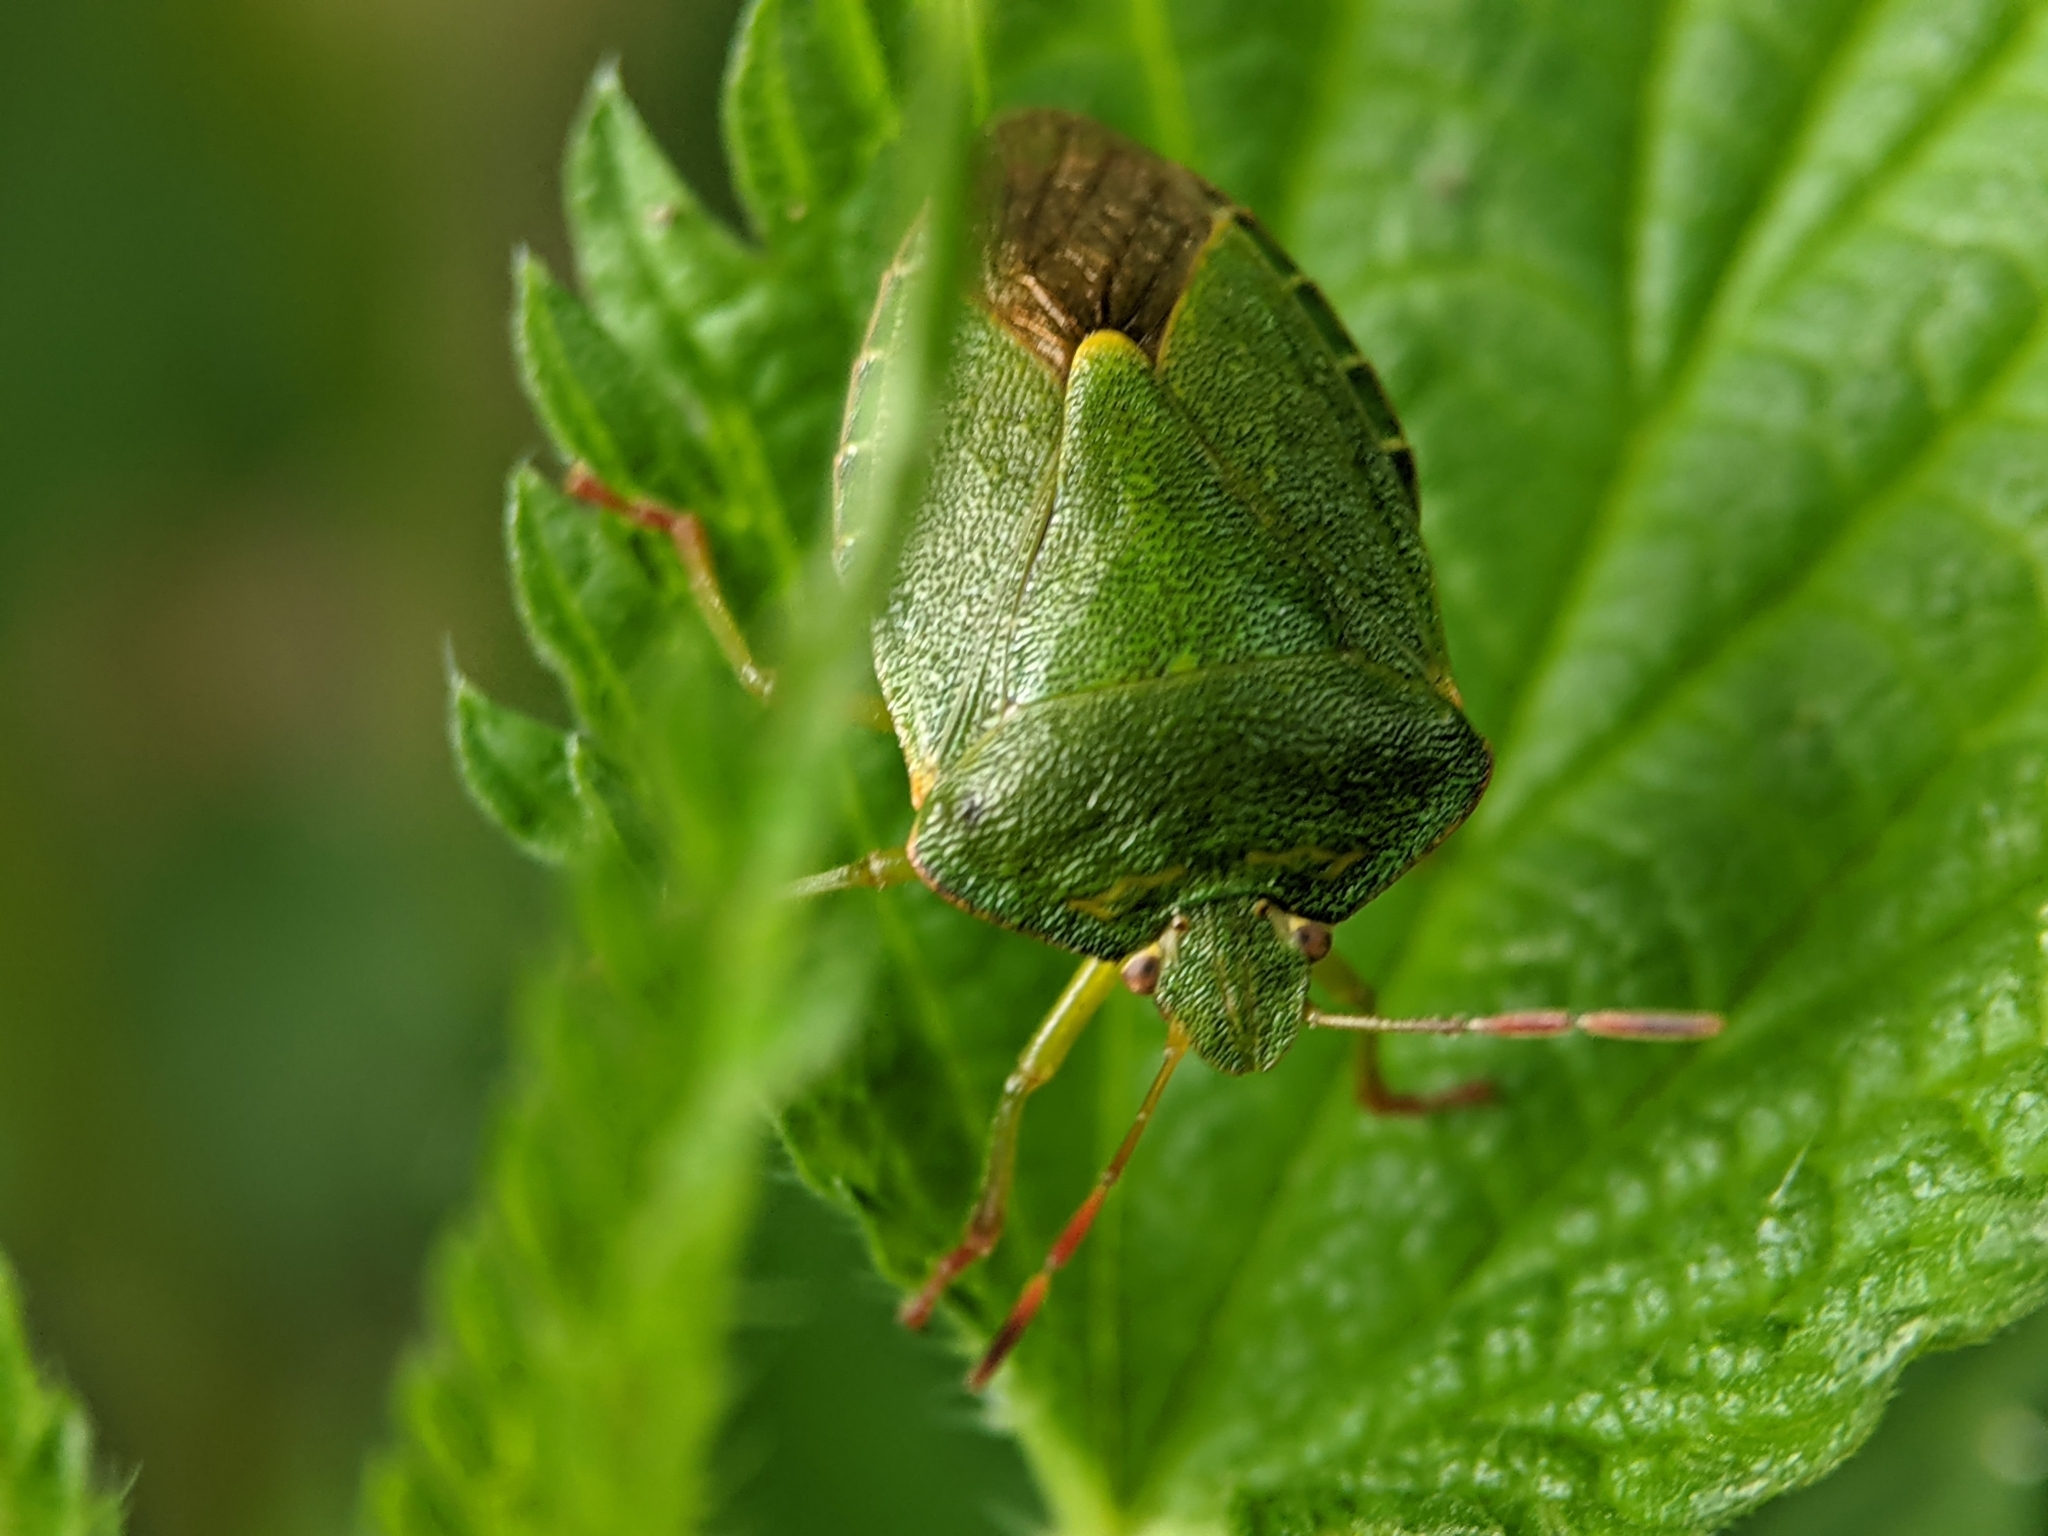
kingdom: Animalia
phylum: Arthropoda
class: Insecta
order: Hemiptera
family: Pentatomidae
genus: Palomena
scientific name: Palomena prasina
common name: Green shieldbug
